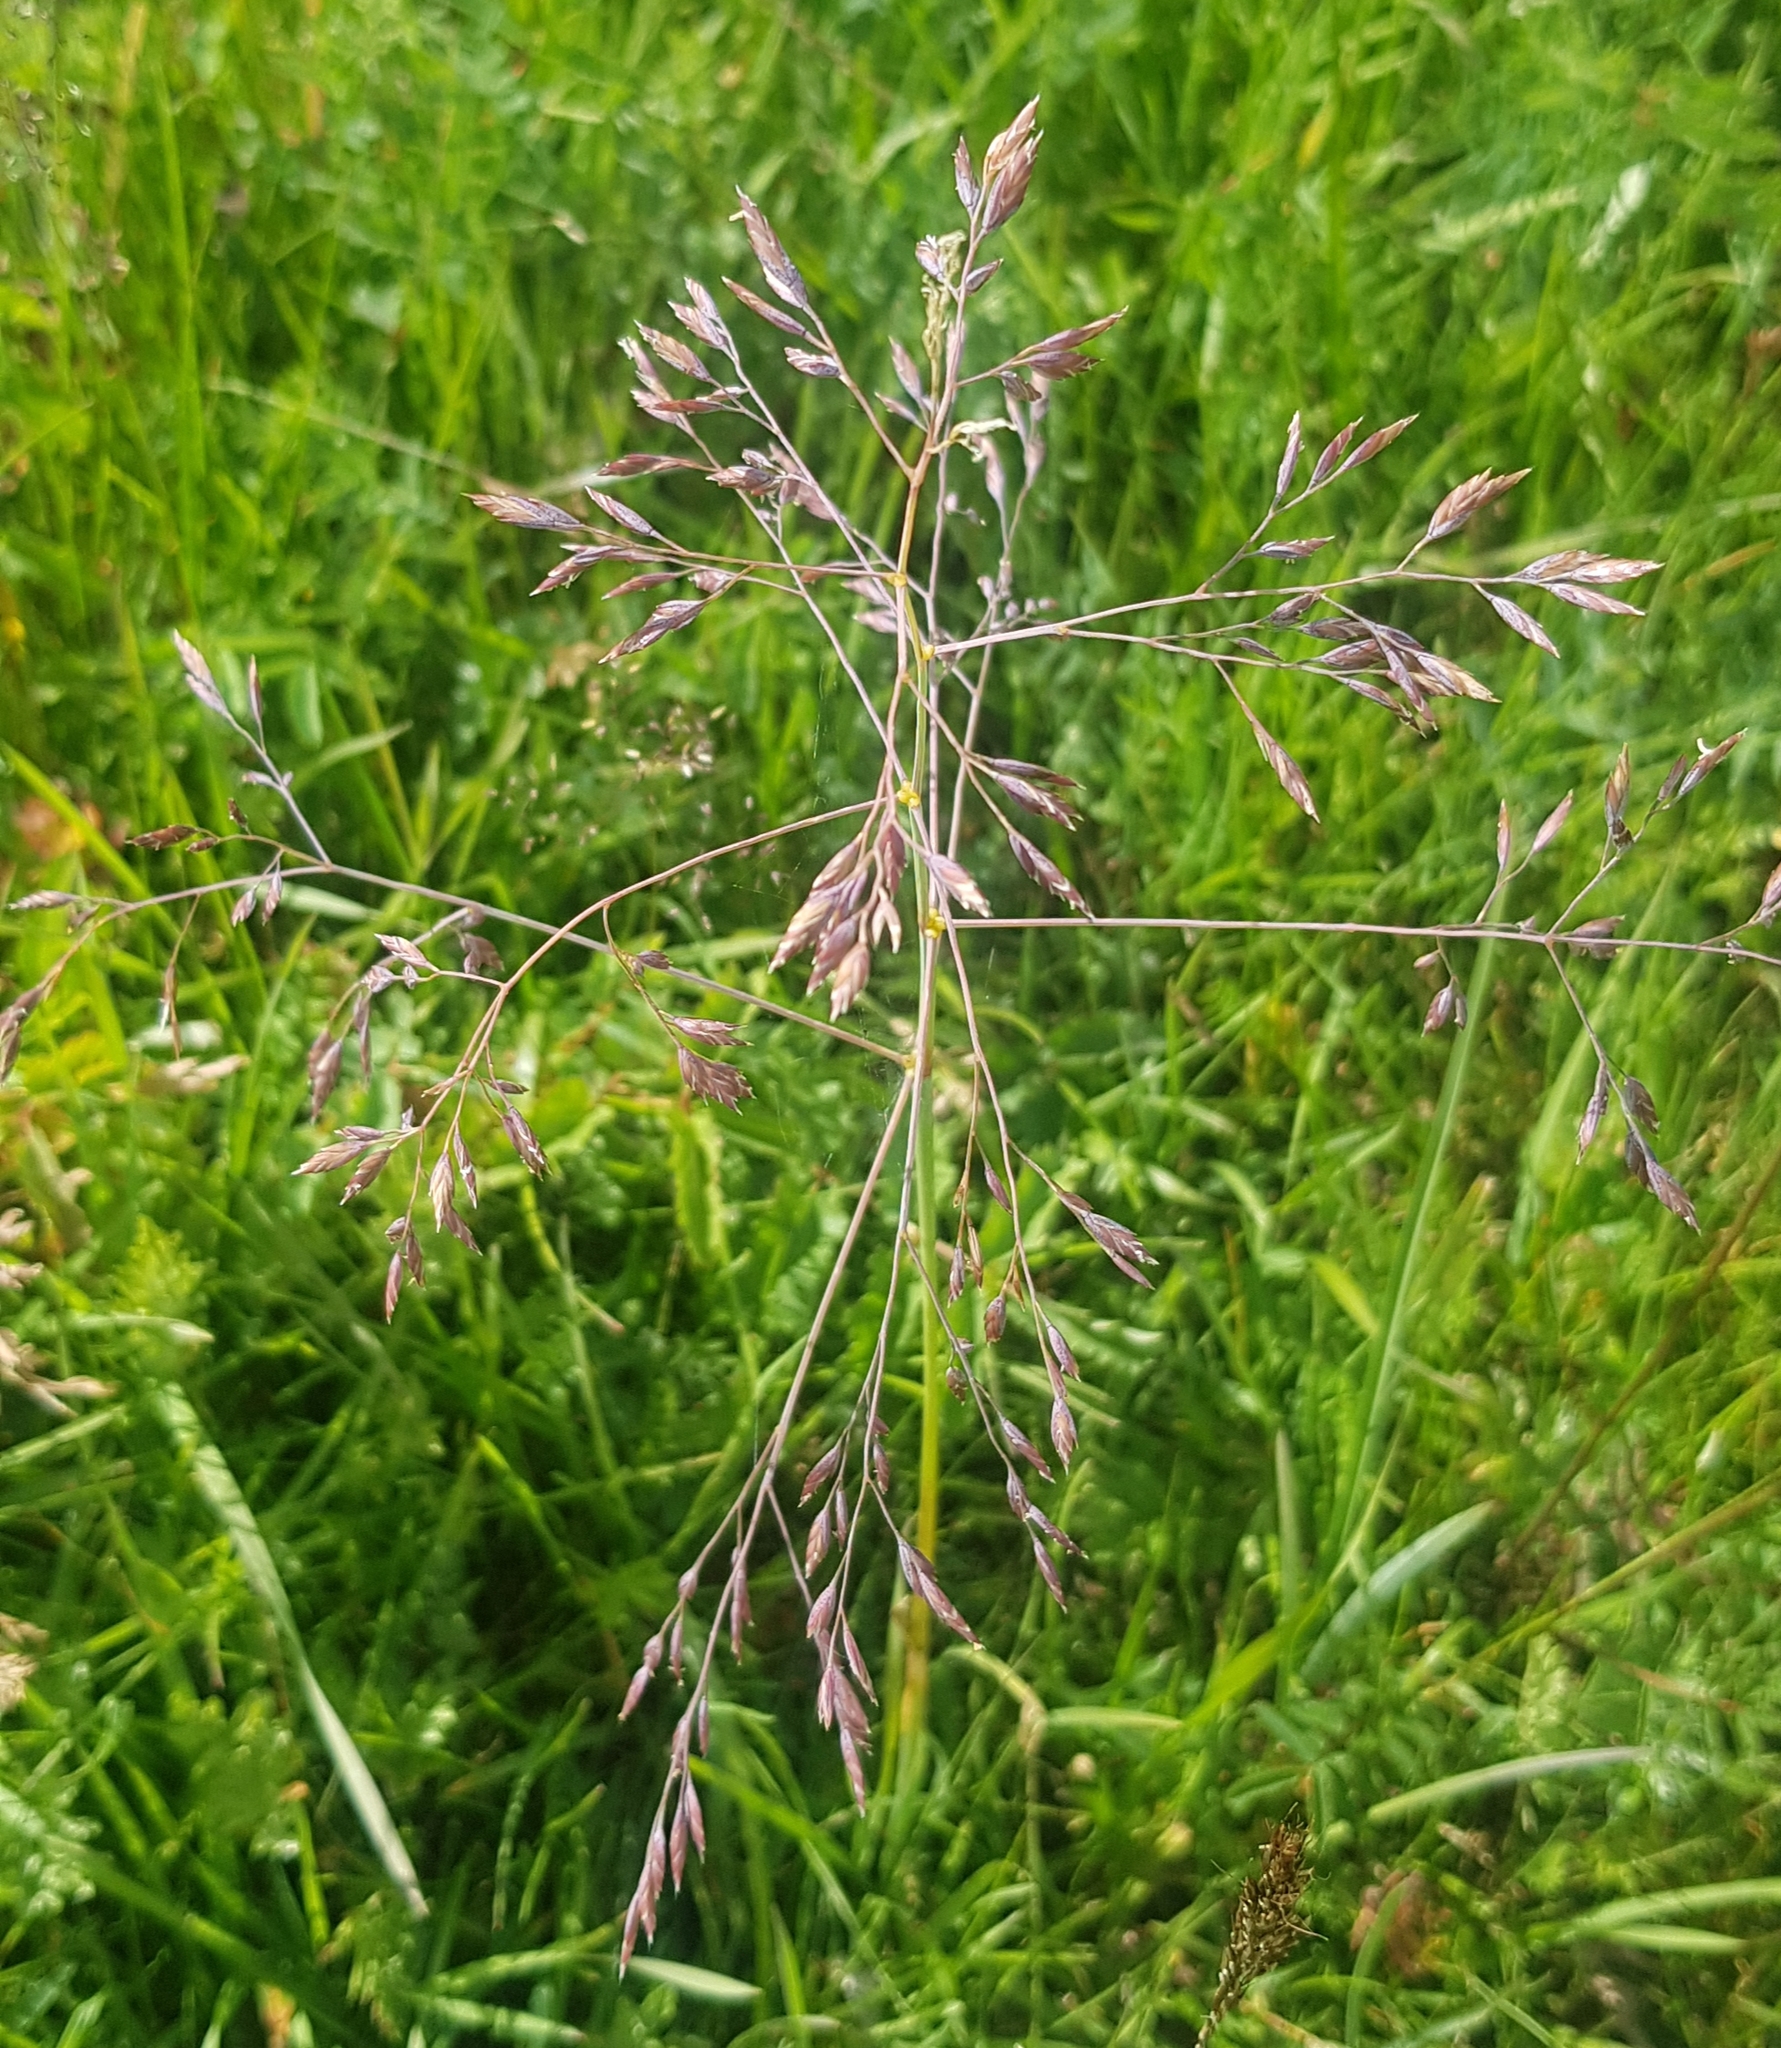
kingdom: Plantae
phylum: Tracheophyta
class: Liliopsida
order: Poales
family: Poaceae
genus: Poa
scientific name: Poa subfastigiata
